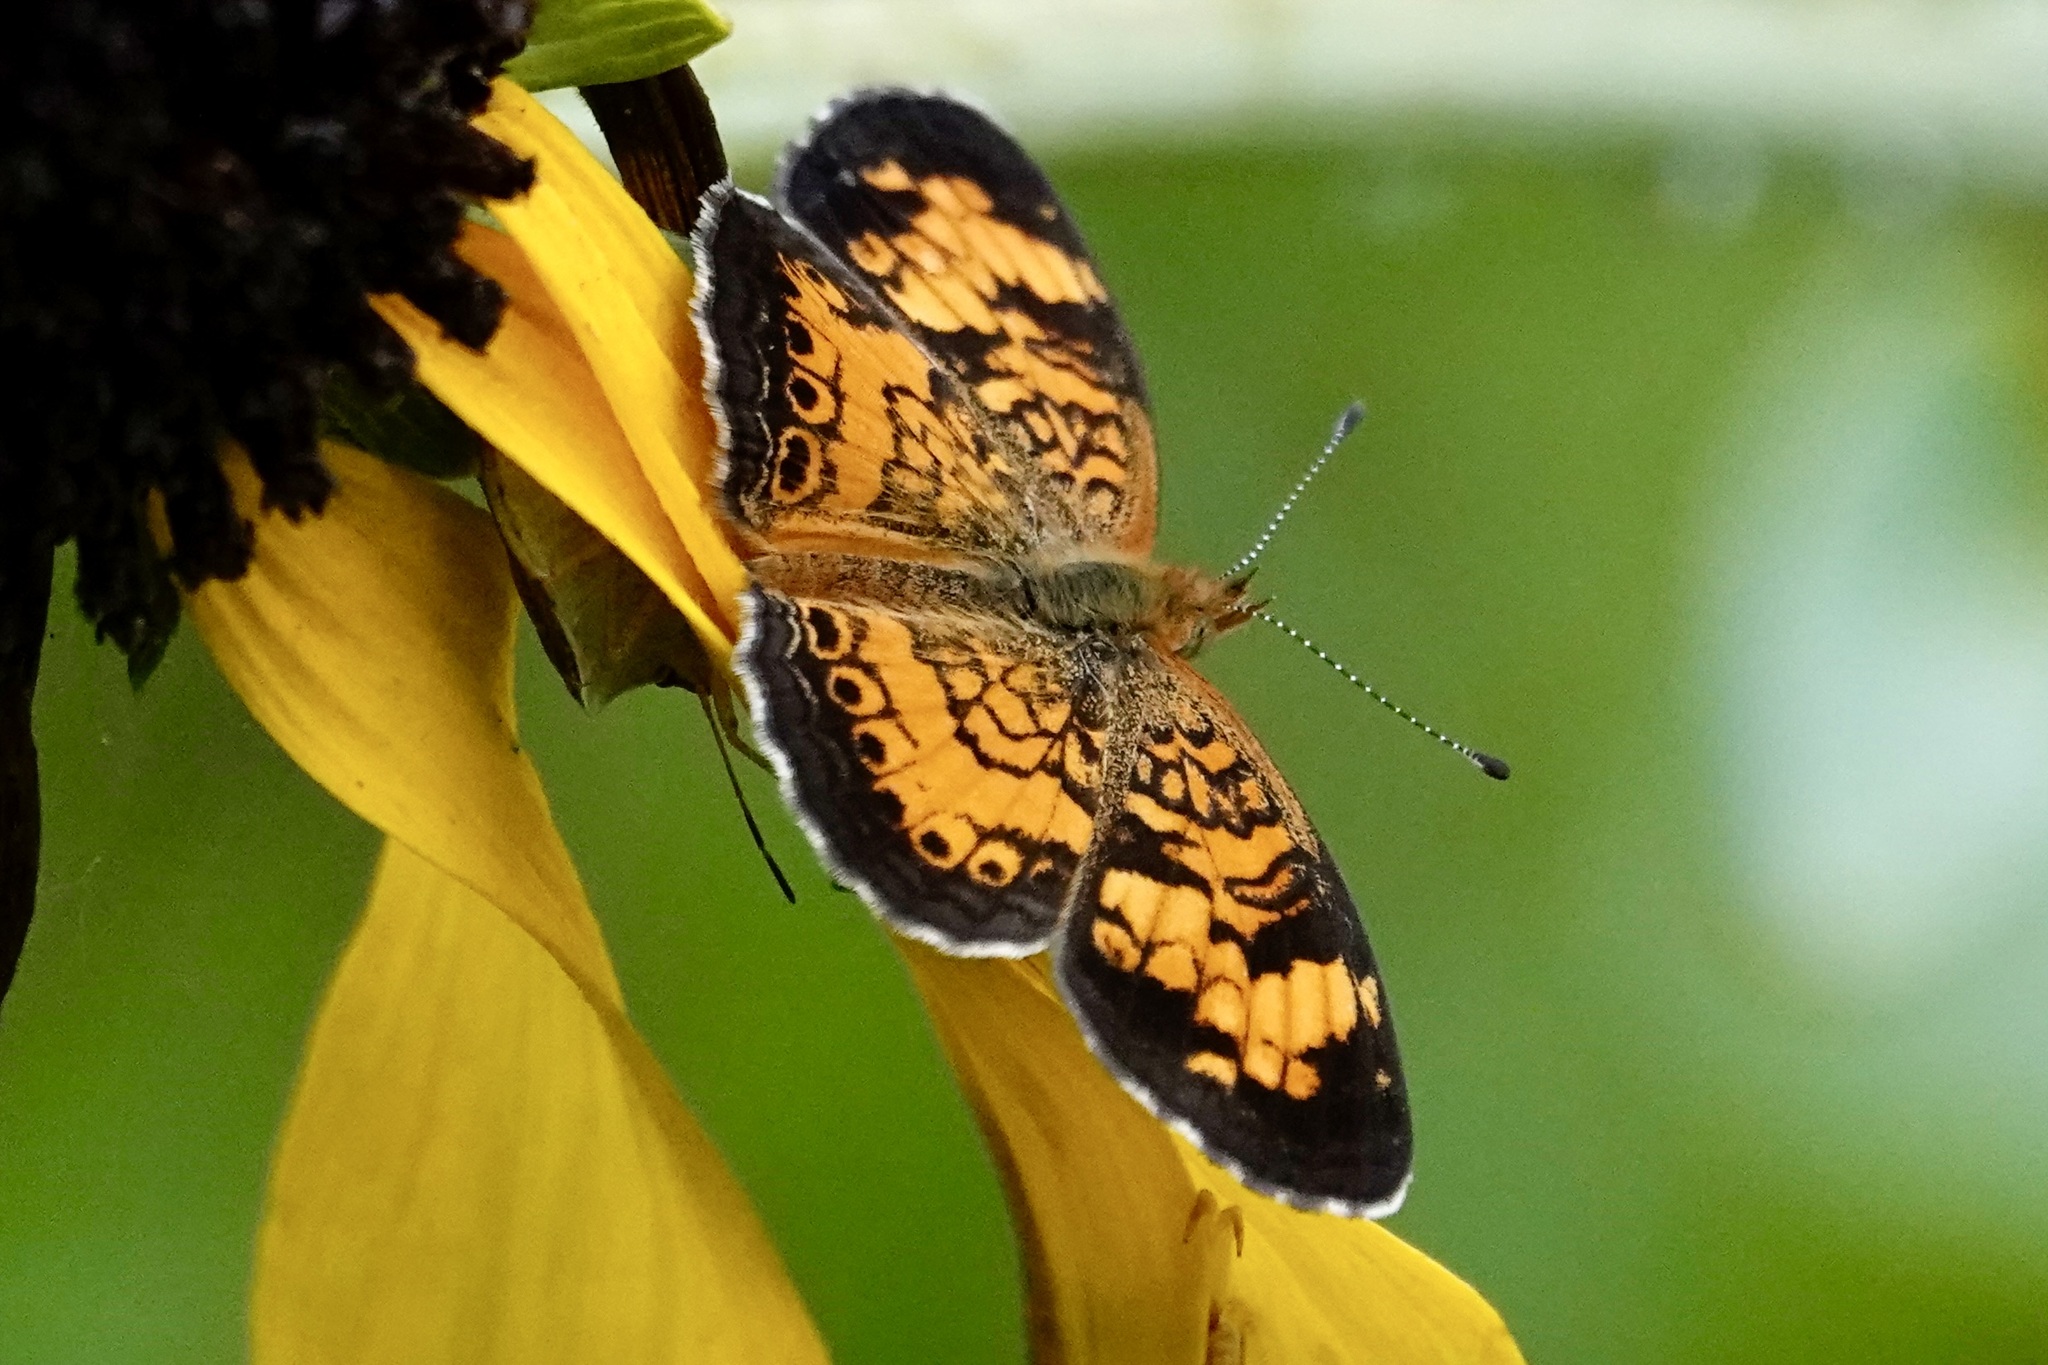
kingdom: Animalia
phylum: Arthropoda
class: Insecta
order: Lepidoptera
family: Nymphalidae
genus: Phyciodes
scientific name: Phyciodes tharos
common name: Pearl crescent
